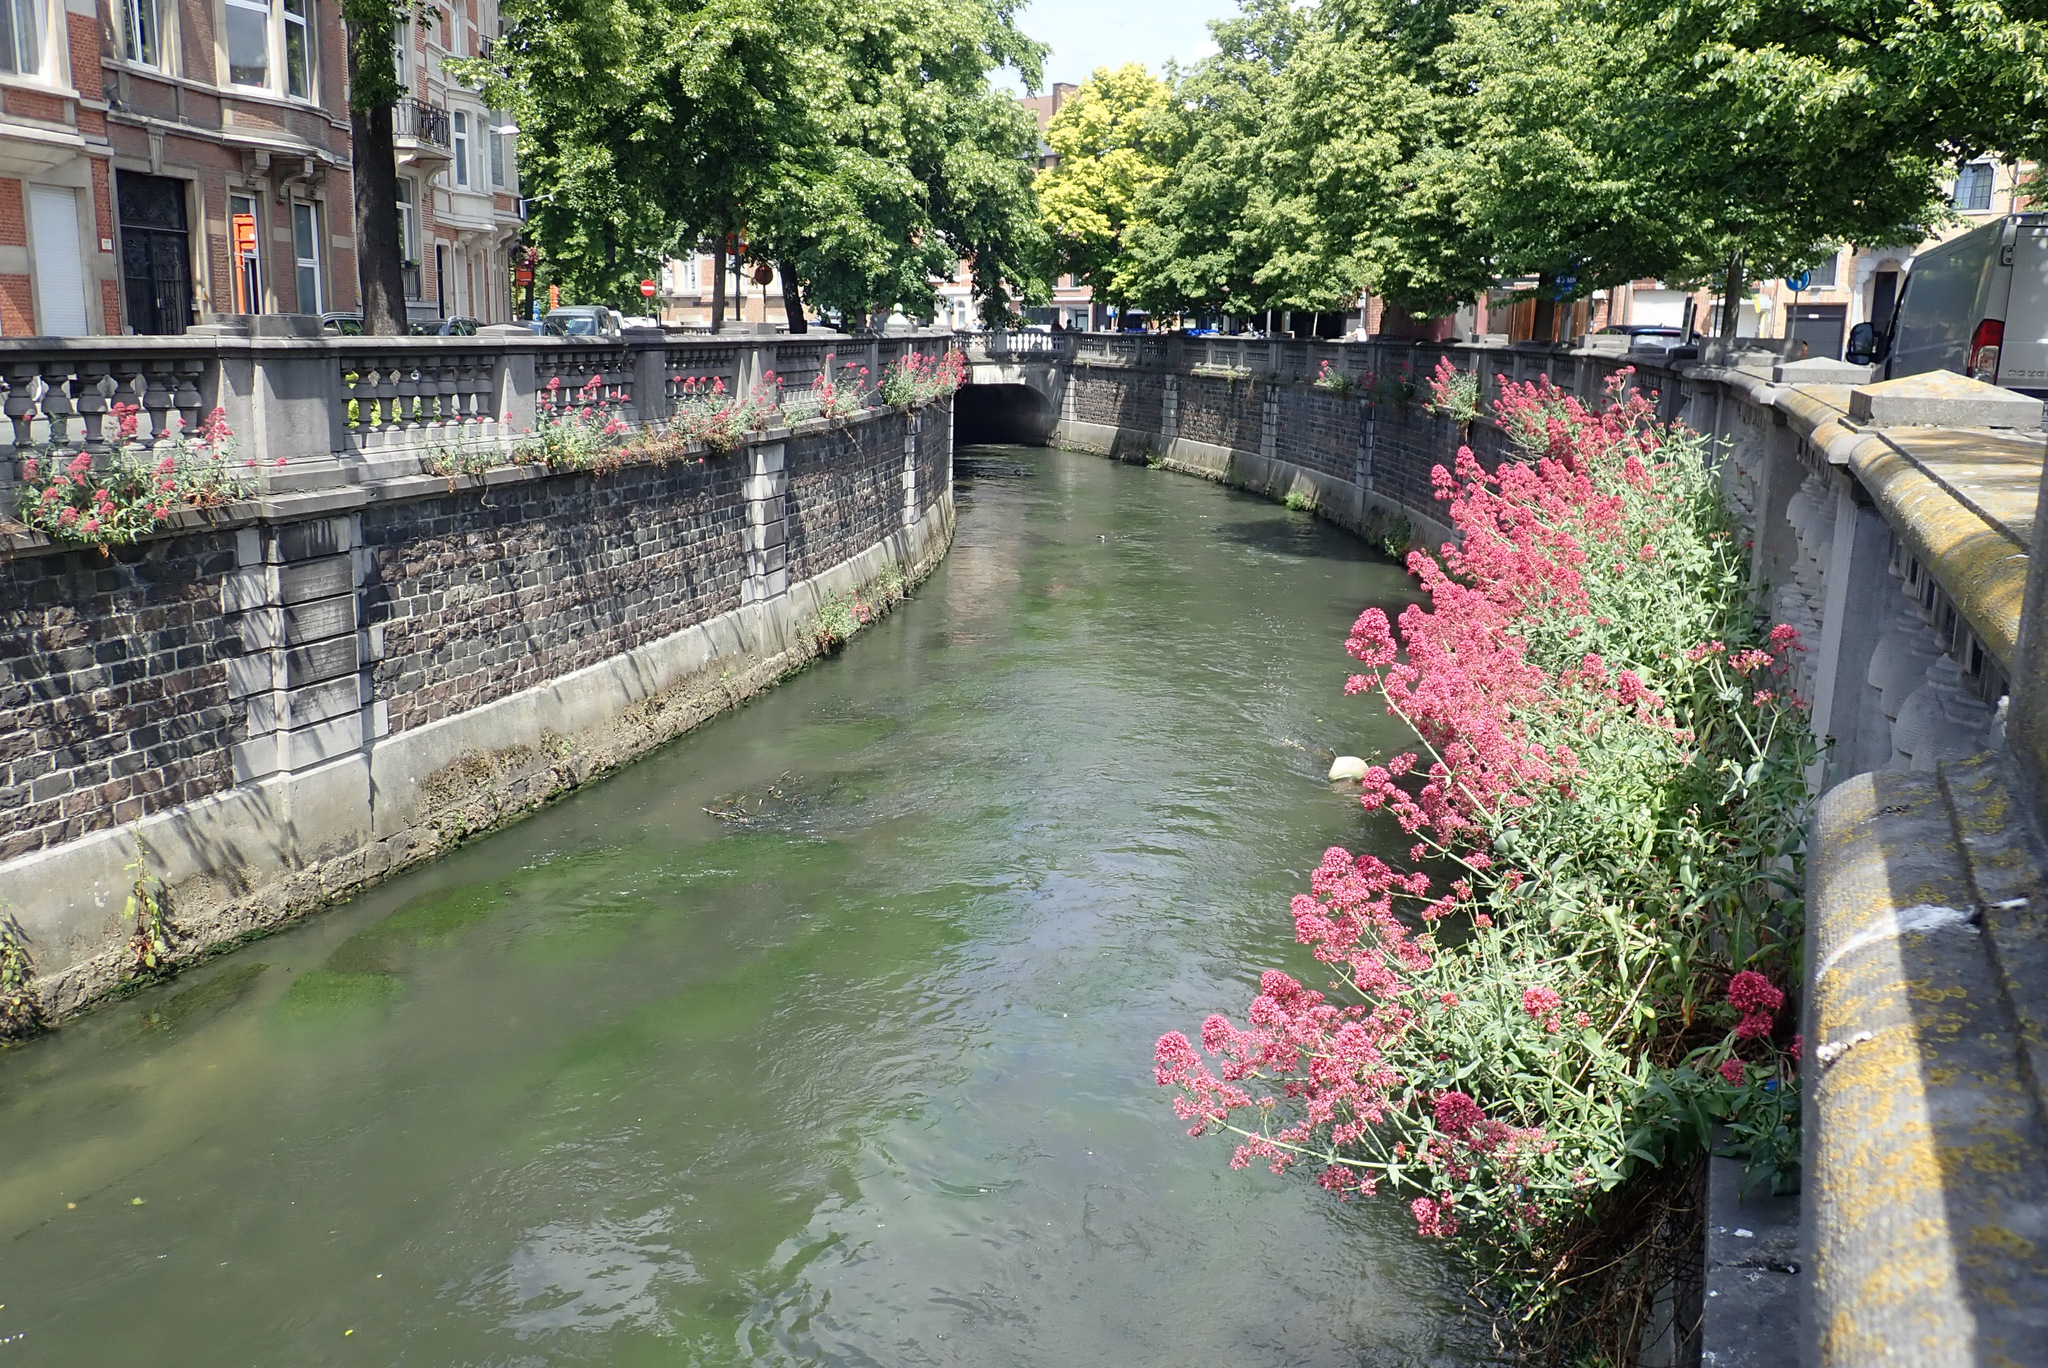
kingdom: Plantae
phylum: Tracheophyta
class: Magnoliopsida
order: Dipsacales
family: Caprifoliaceae
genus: Centranthus
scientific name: Centranthus ruber
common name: Red valerian
